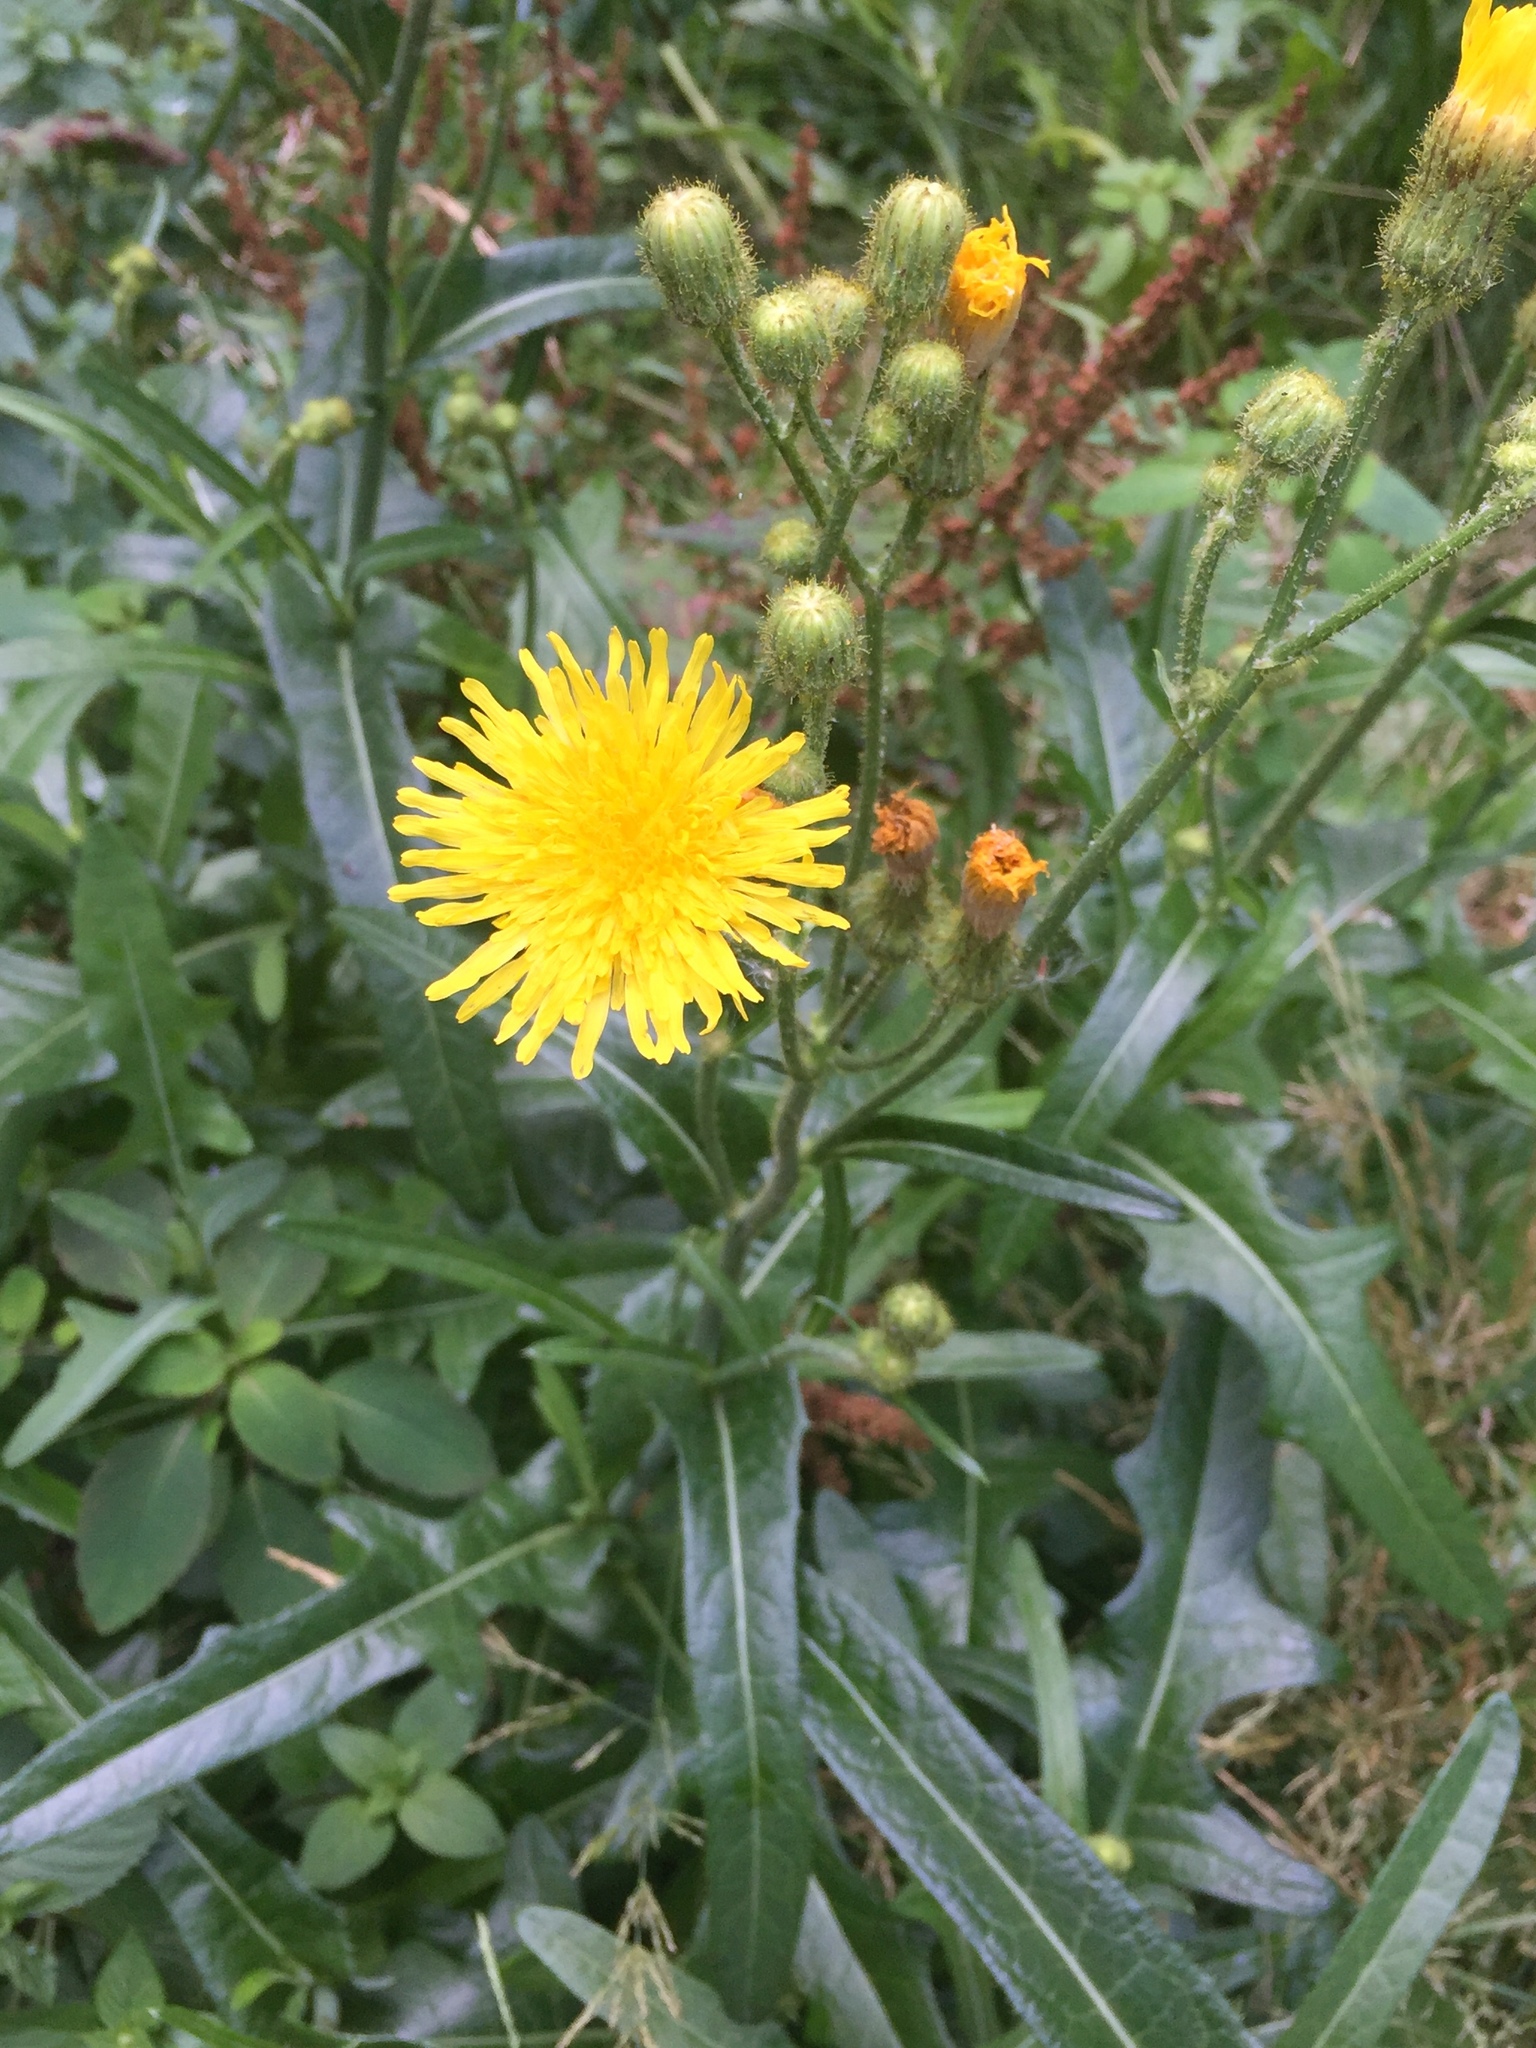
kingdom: Plantae
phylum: Tracheophyta
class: Magnoliopsida
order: Asterales
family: Asteraceae
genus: Sonchus
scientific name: Sonchus arvensis
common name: Perennial sow-thistle
